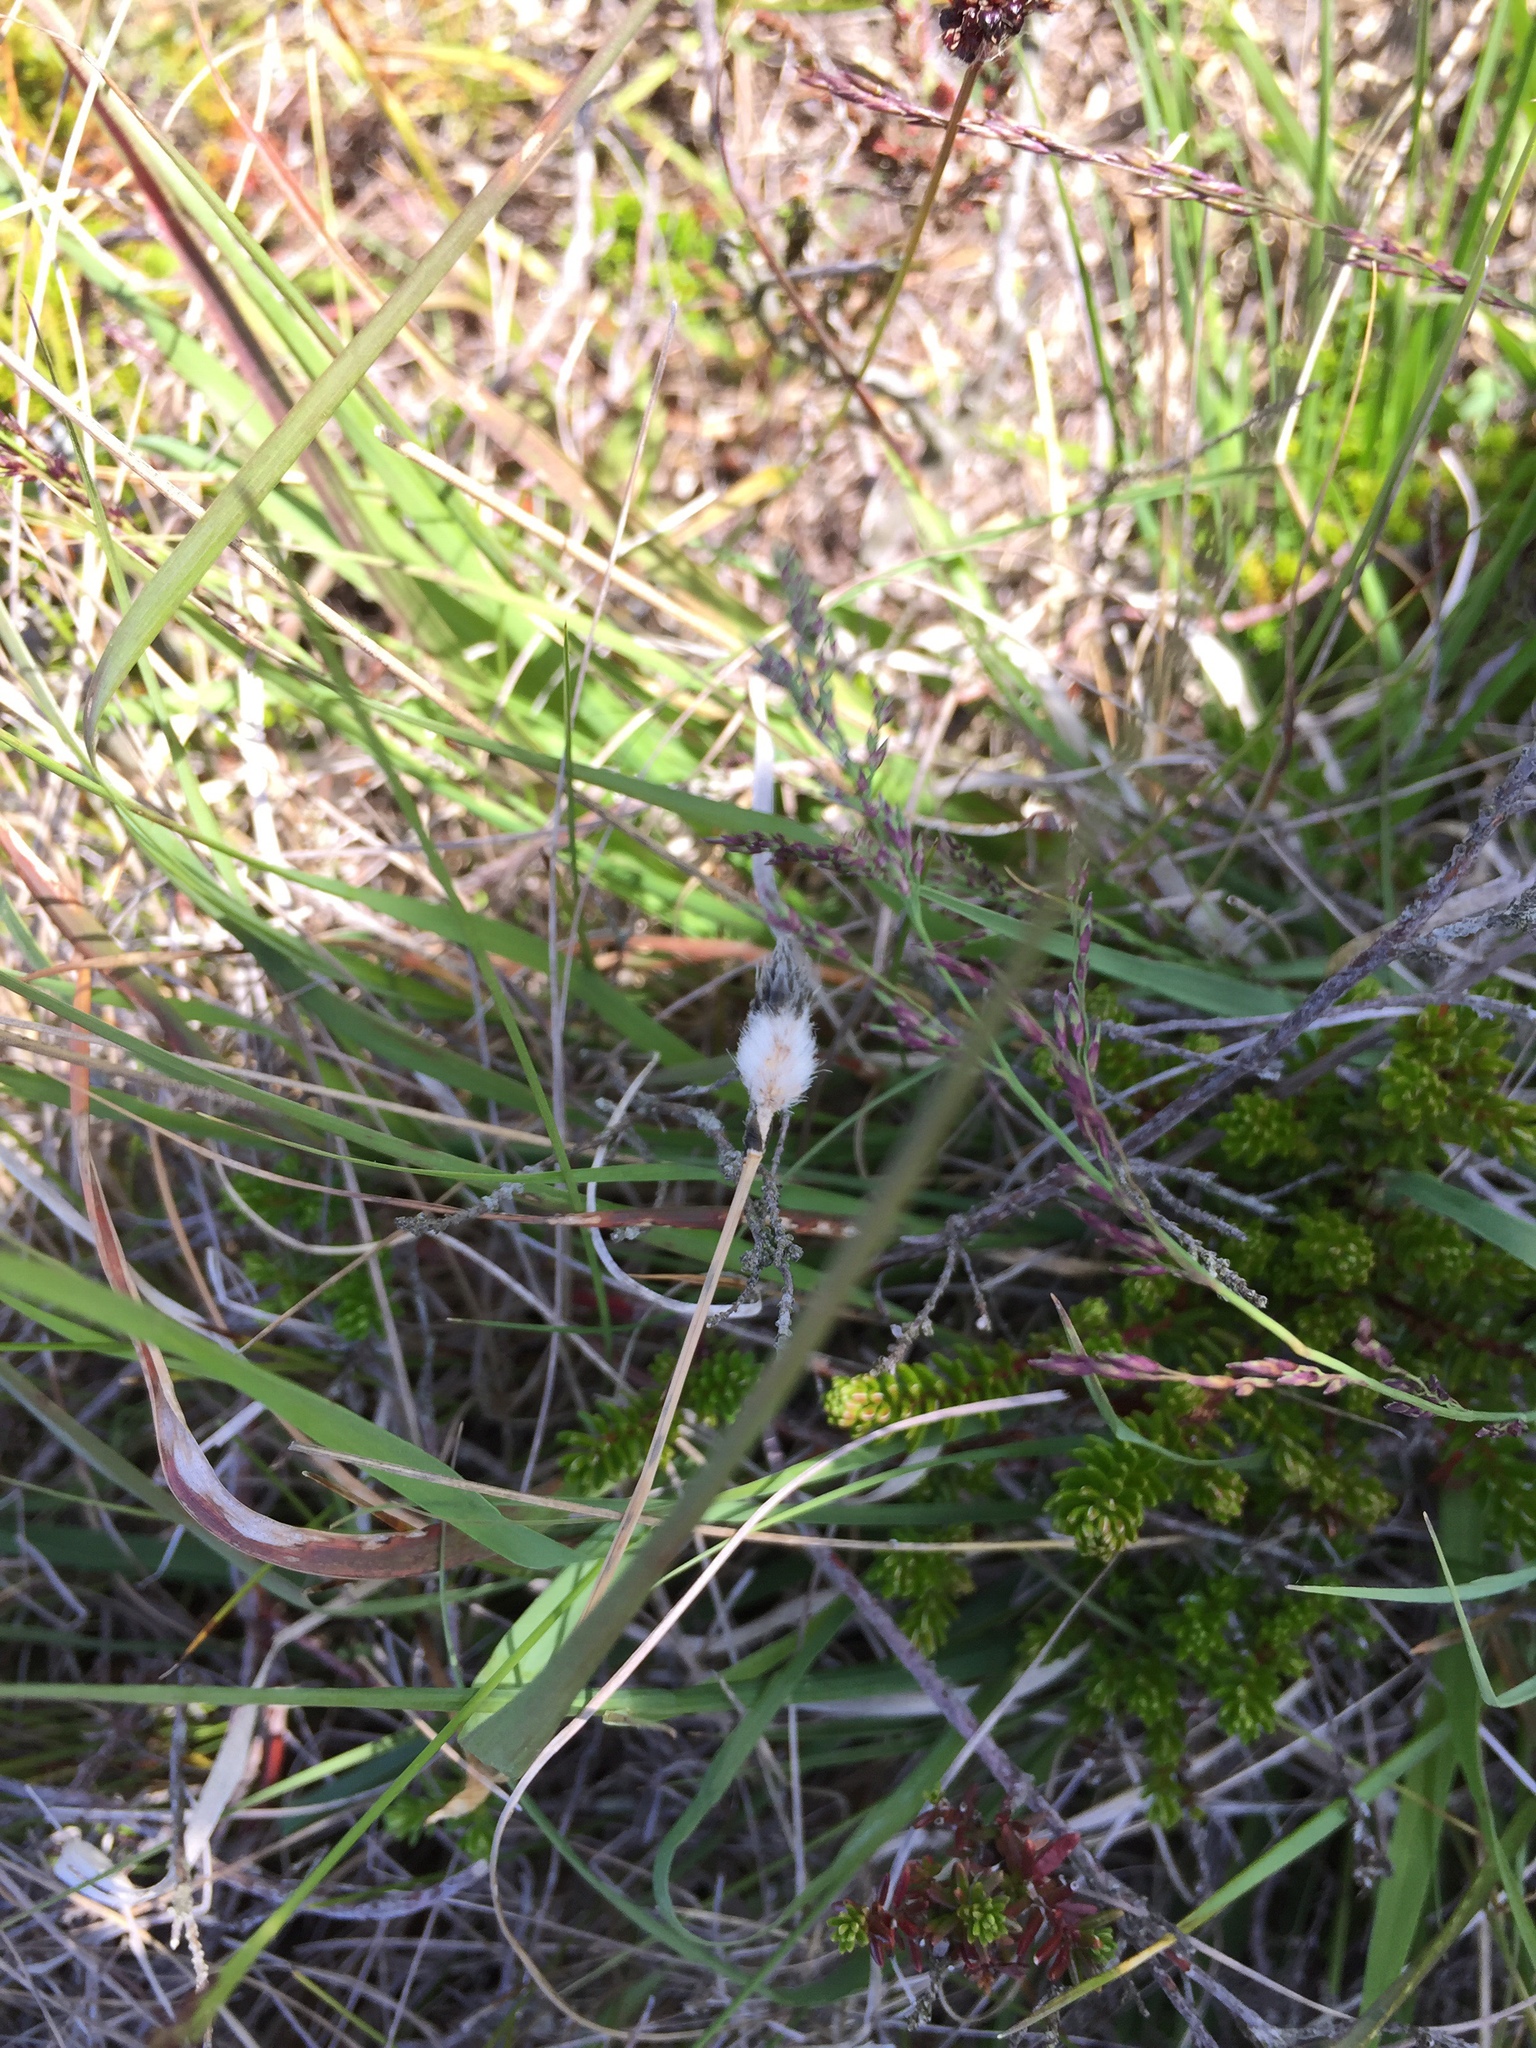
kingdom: Plantae
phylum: Tracheophyta
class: Liliopsida
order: Poales
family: Cyperaceae
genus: Eriophorum
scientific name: Eriophorum vaginatum
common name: Hare's-tail cottongrass
